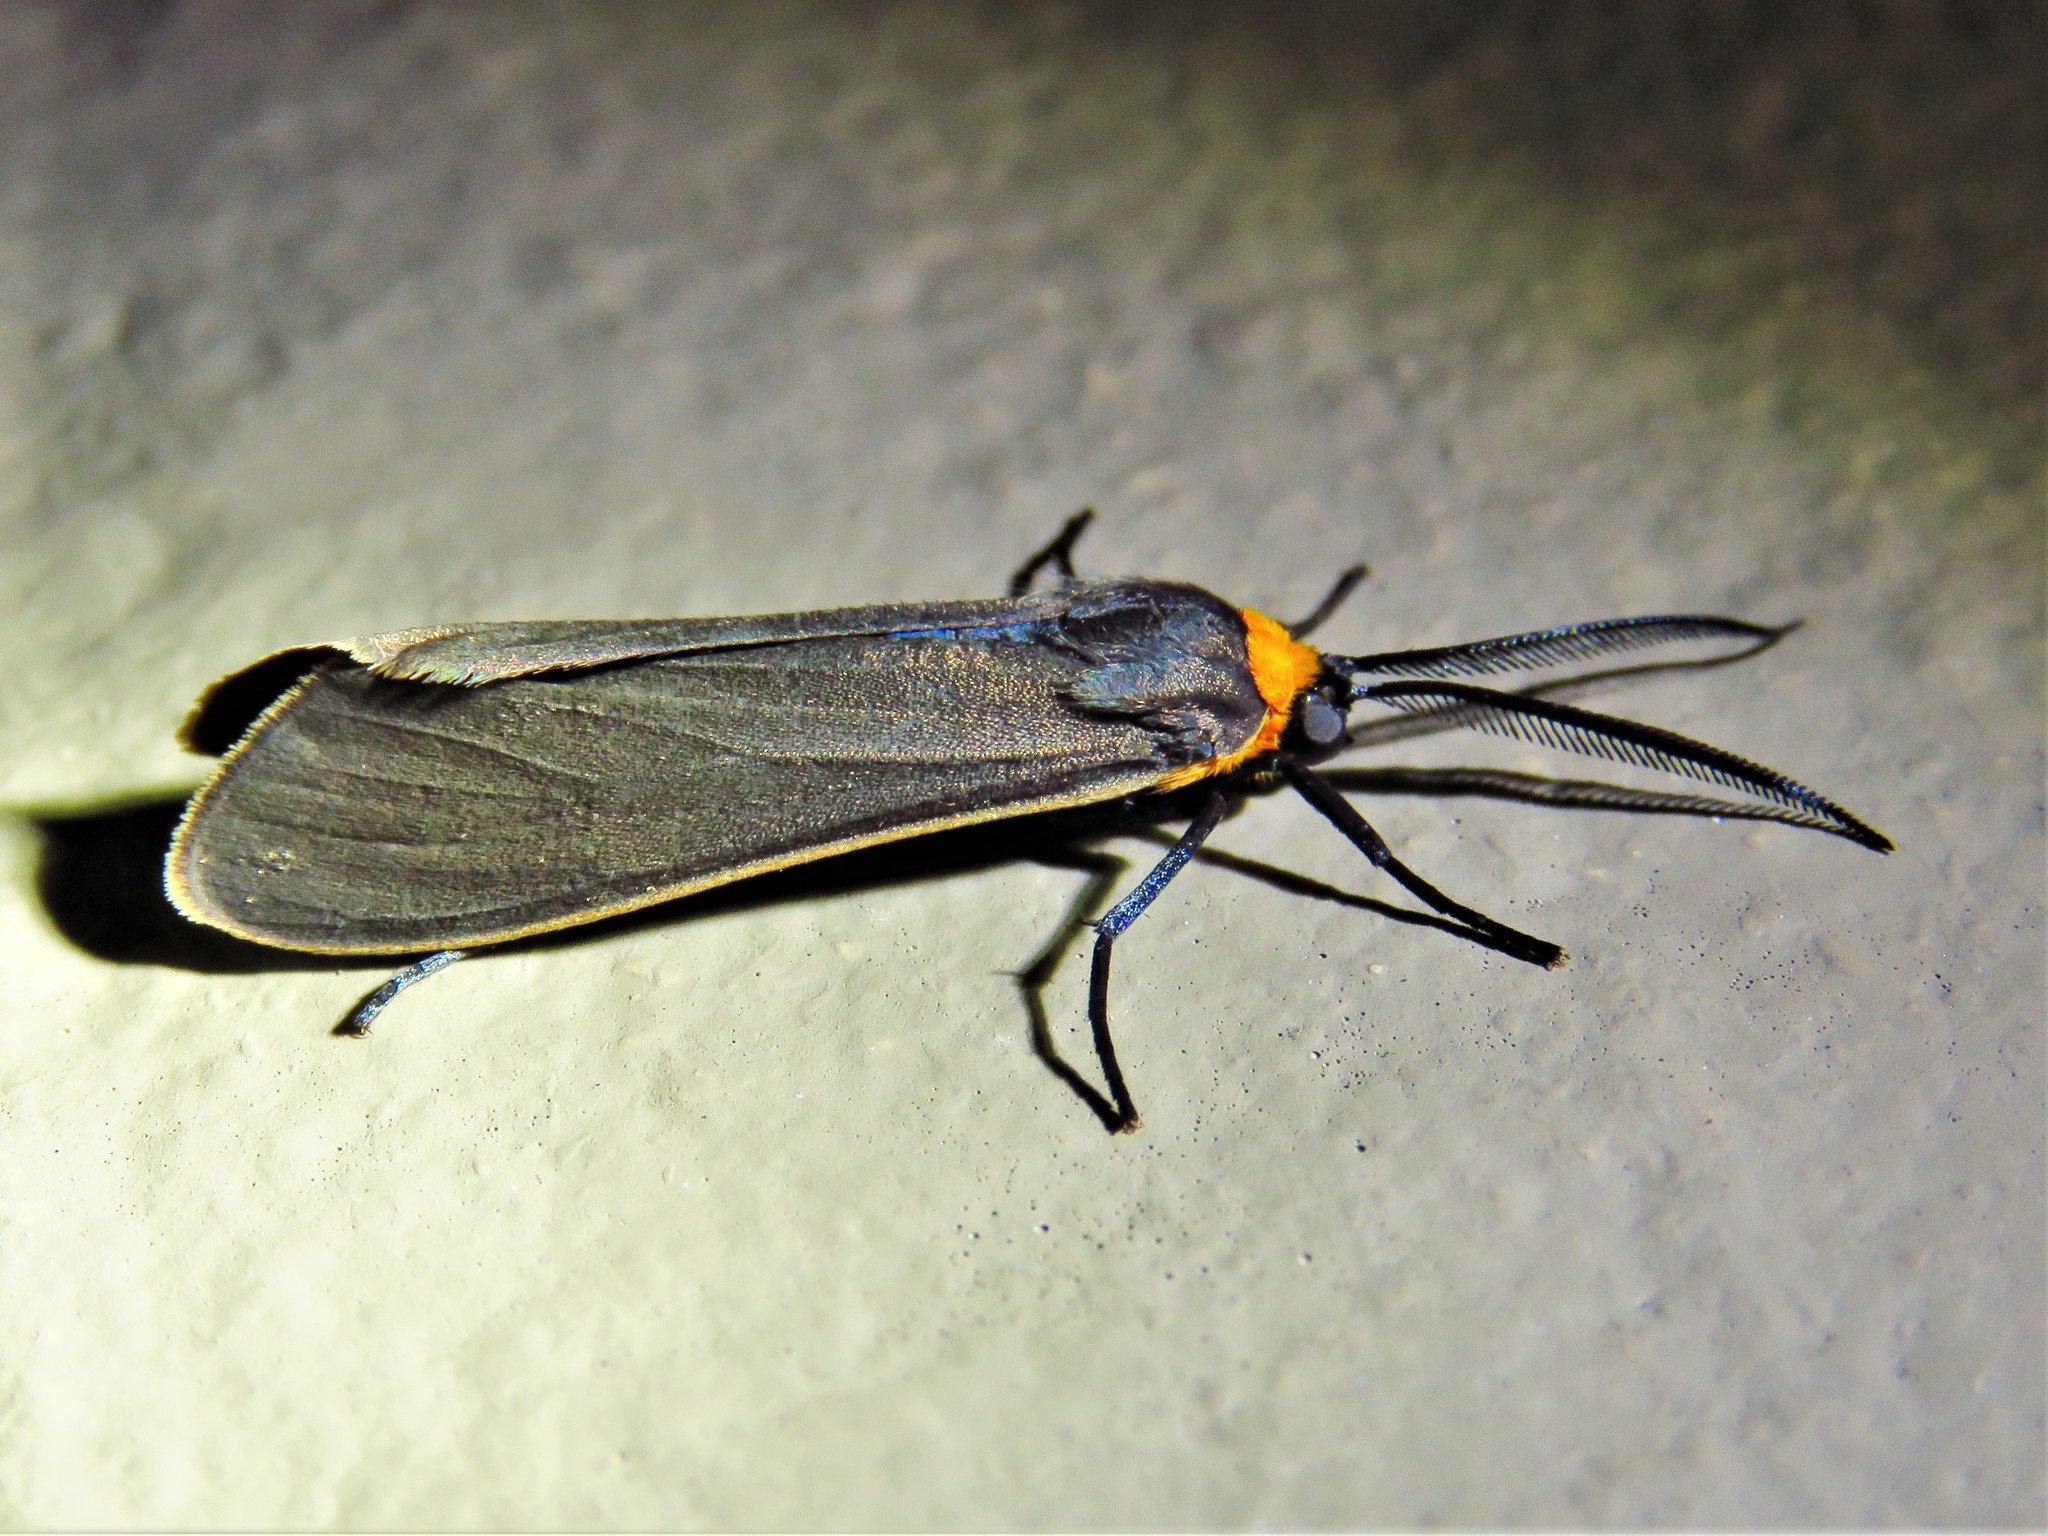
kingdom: Animalia
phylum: Arthropoda
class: Insecta
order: Lepidoptera
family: Erebidae
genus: Cisseps
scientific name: Cisseps fulvicollis
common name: Yellow-collared scape moth
